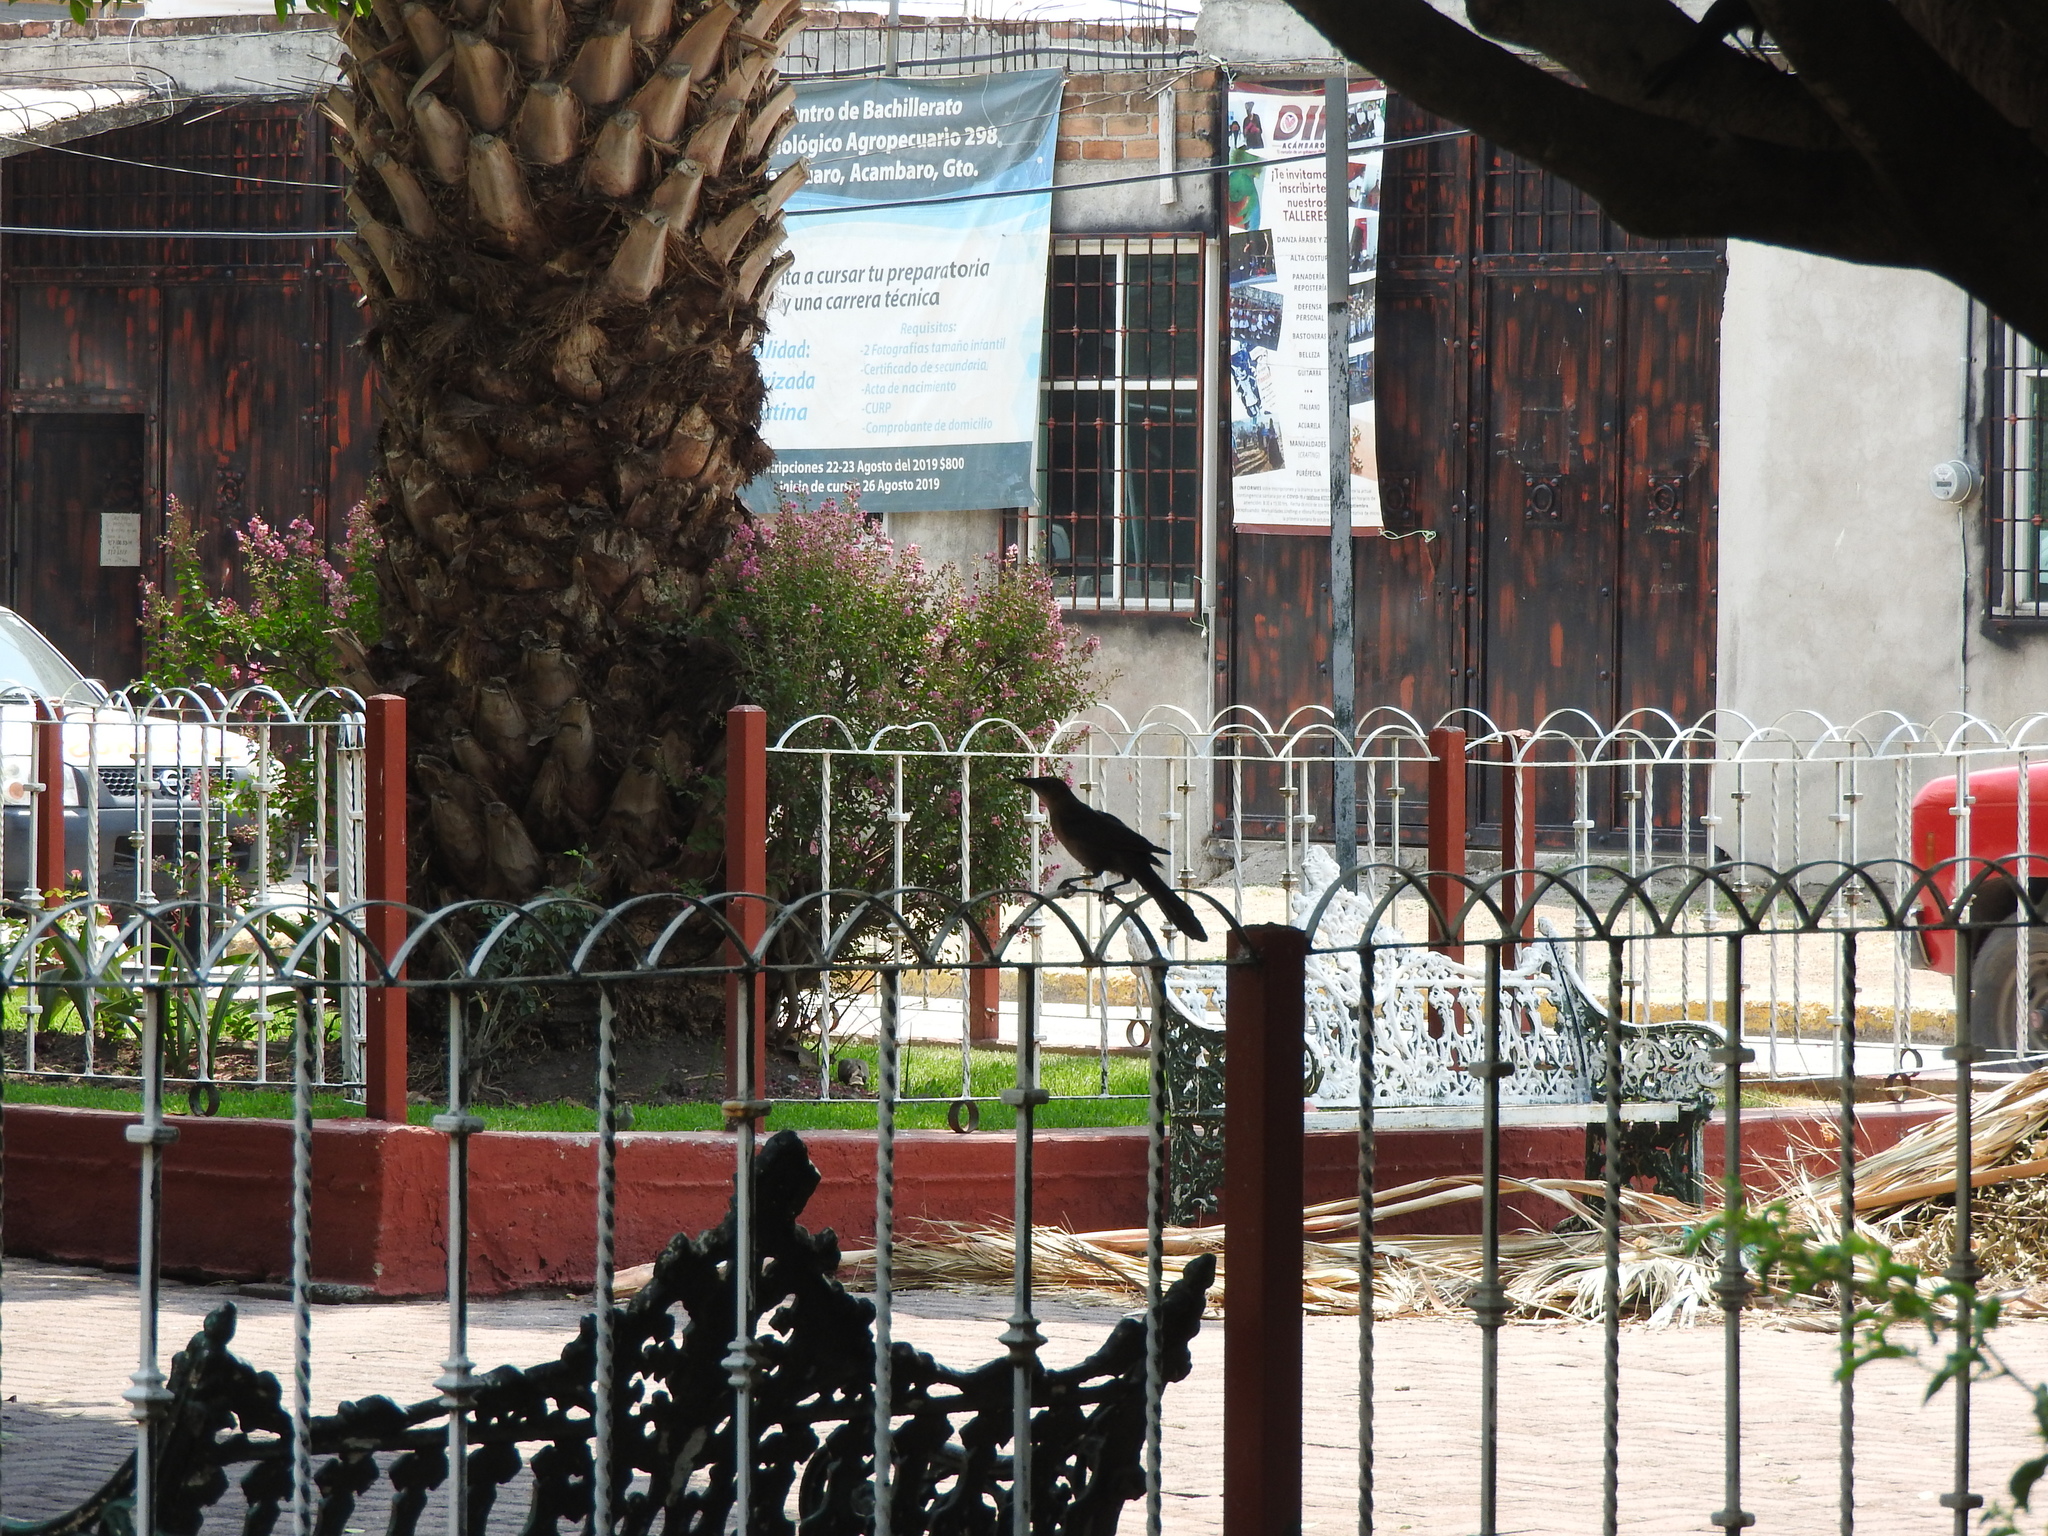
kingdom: Animalia
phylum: Chordata
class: Aves
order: Passeriformes
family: Icteridae
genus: Quiscalus
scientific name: Quiscalus mexicanus
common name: Great-tailed grackle
